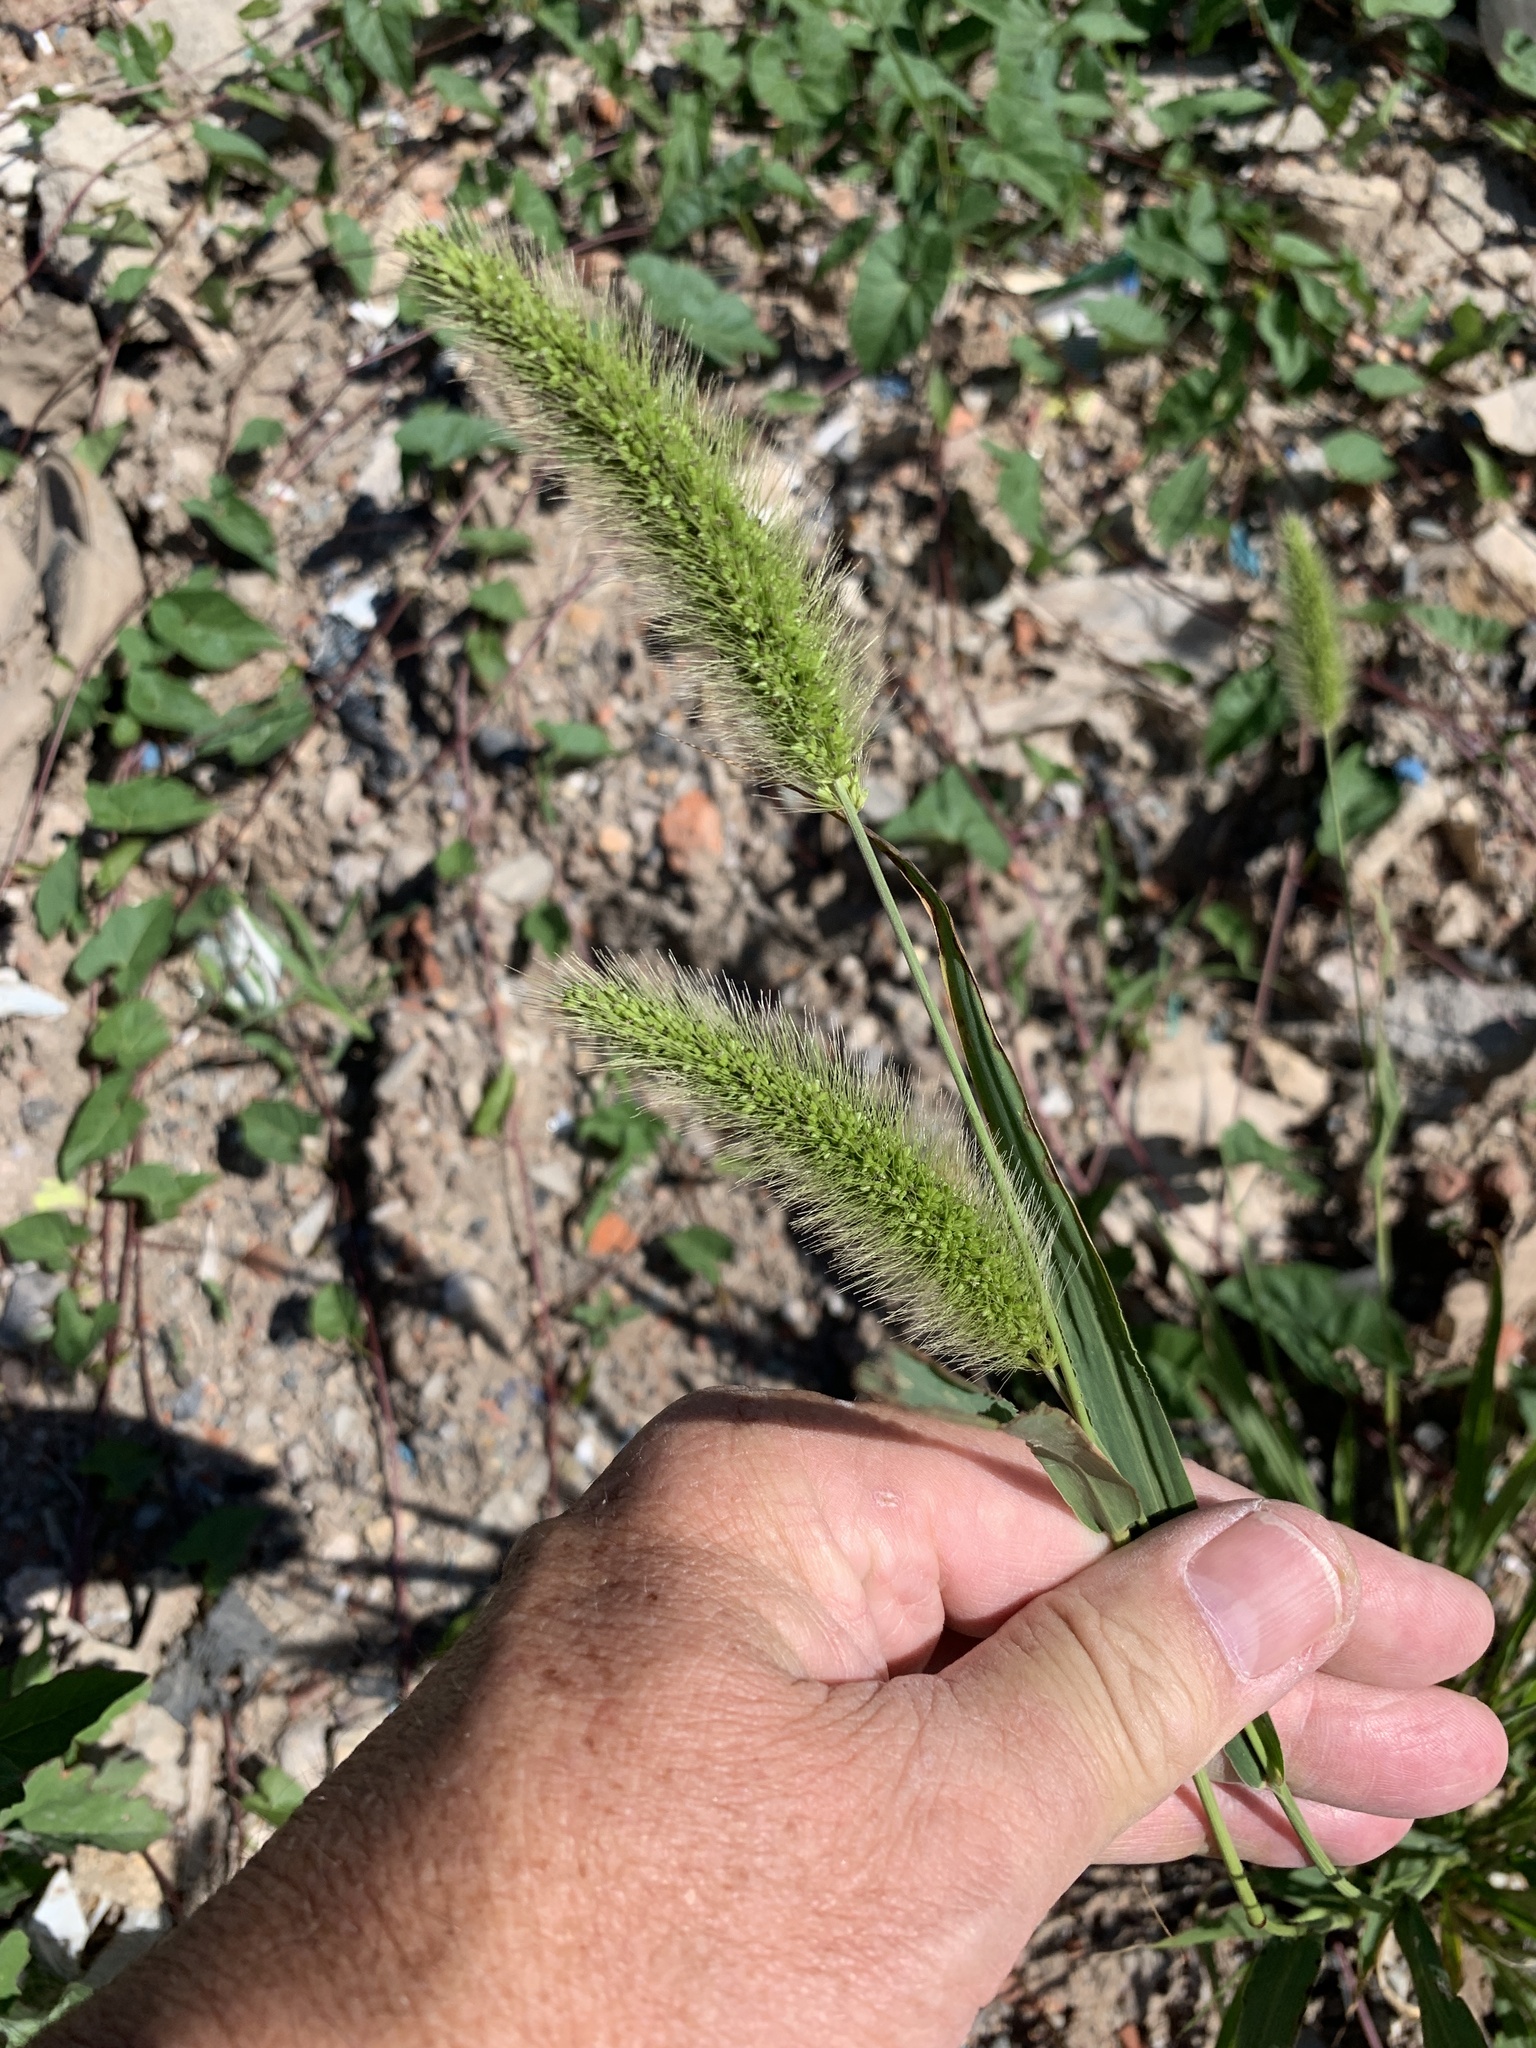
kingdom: Plantae
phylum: Tracheophyta
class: Liliopsida
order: Poales
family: Poaceae
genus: Setaria
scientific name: Setaria viridis
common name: Green bristlegrass
